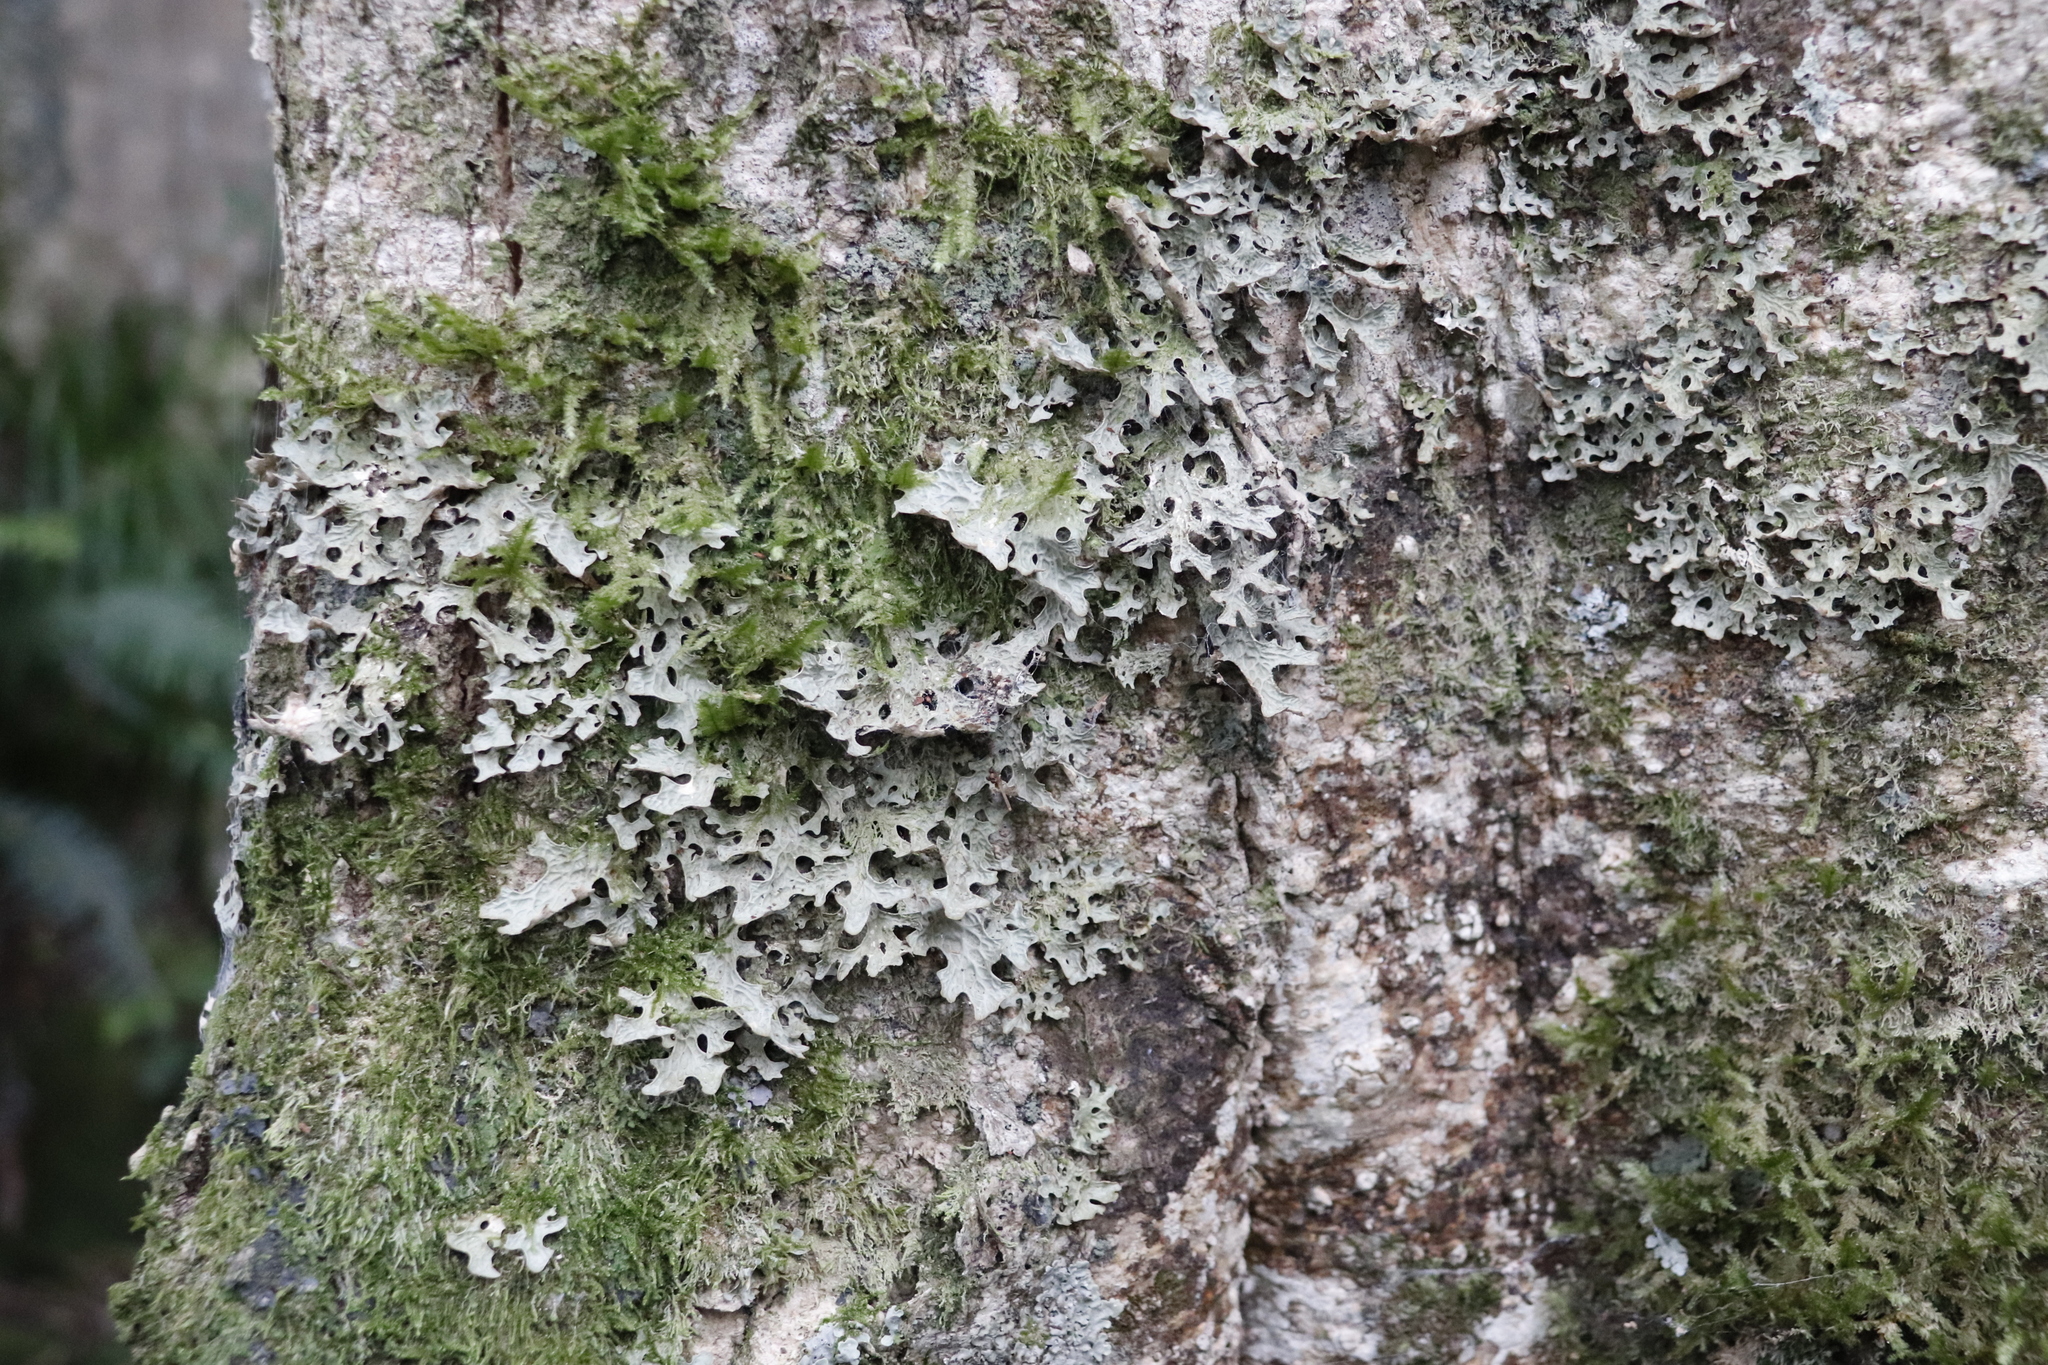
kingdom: Fungi
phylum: Ascomycota
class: Lecanoromycetes
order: Peltigerales
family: Lobariaceae
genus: Lobaria
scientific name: Lobaria pulmonaria
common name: Lungwort
